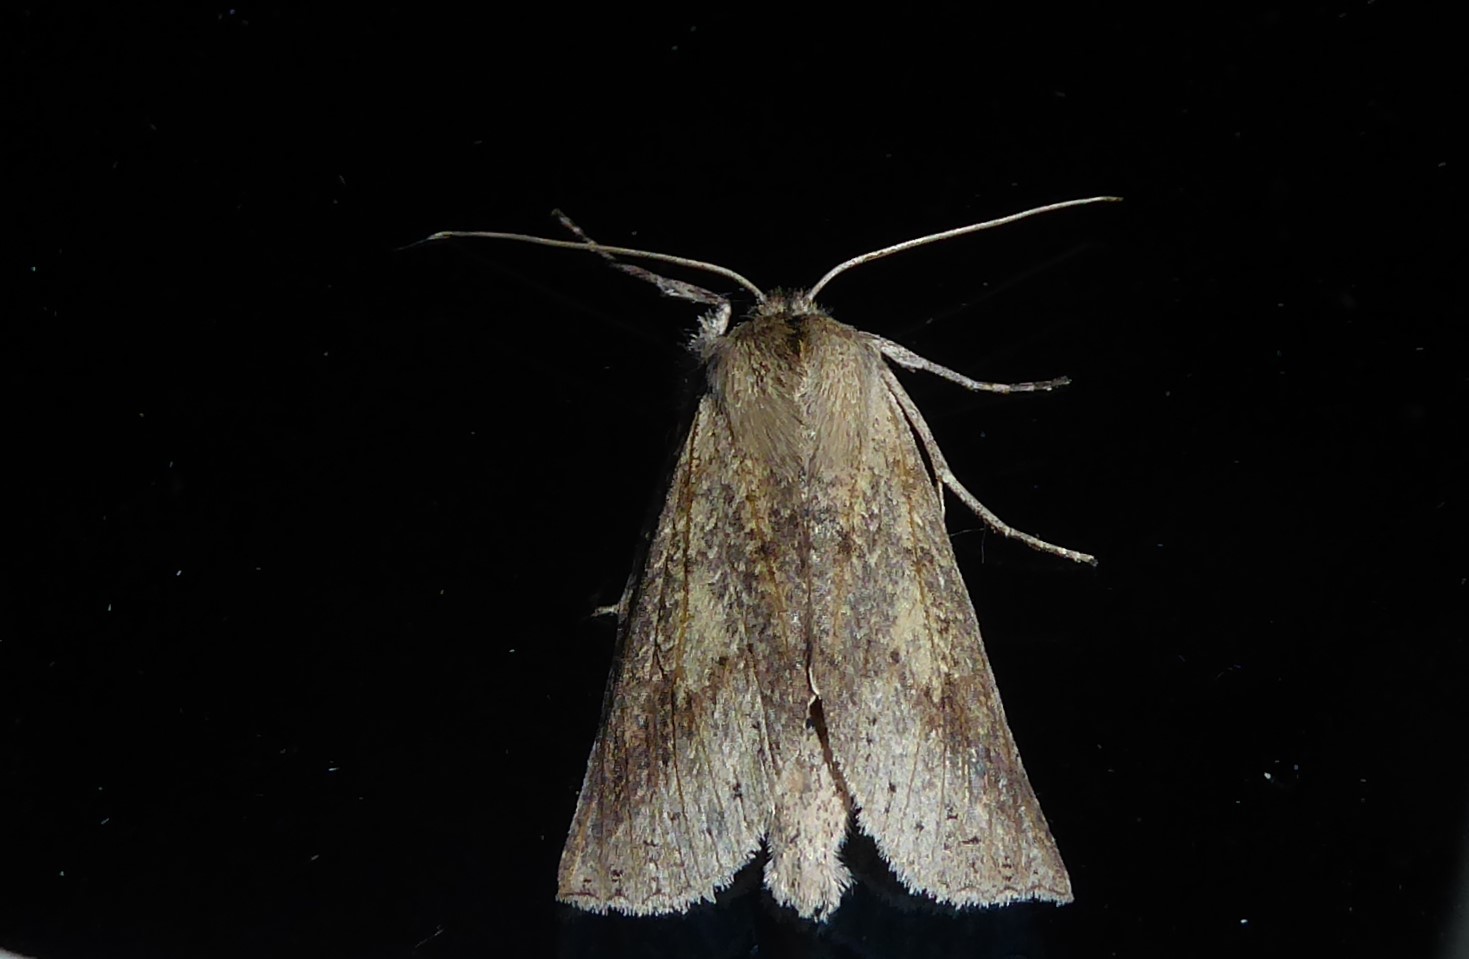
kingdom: Animalia
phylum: Arthropoda
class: Insecta
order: Lepidoptera
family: Geometridae
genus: Declana
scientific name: Declana leptomera
